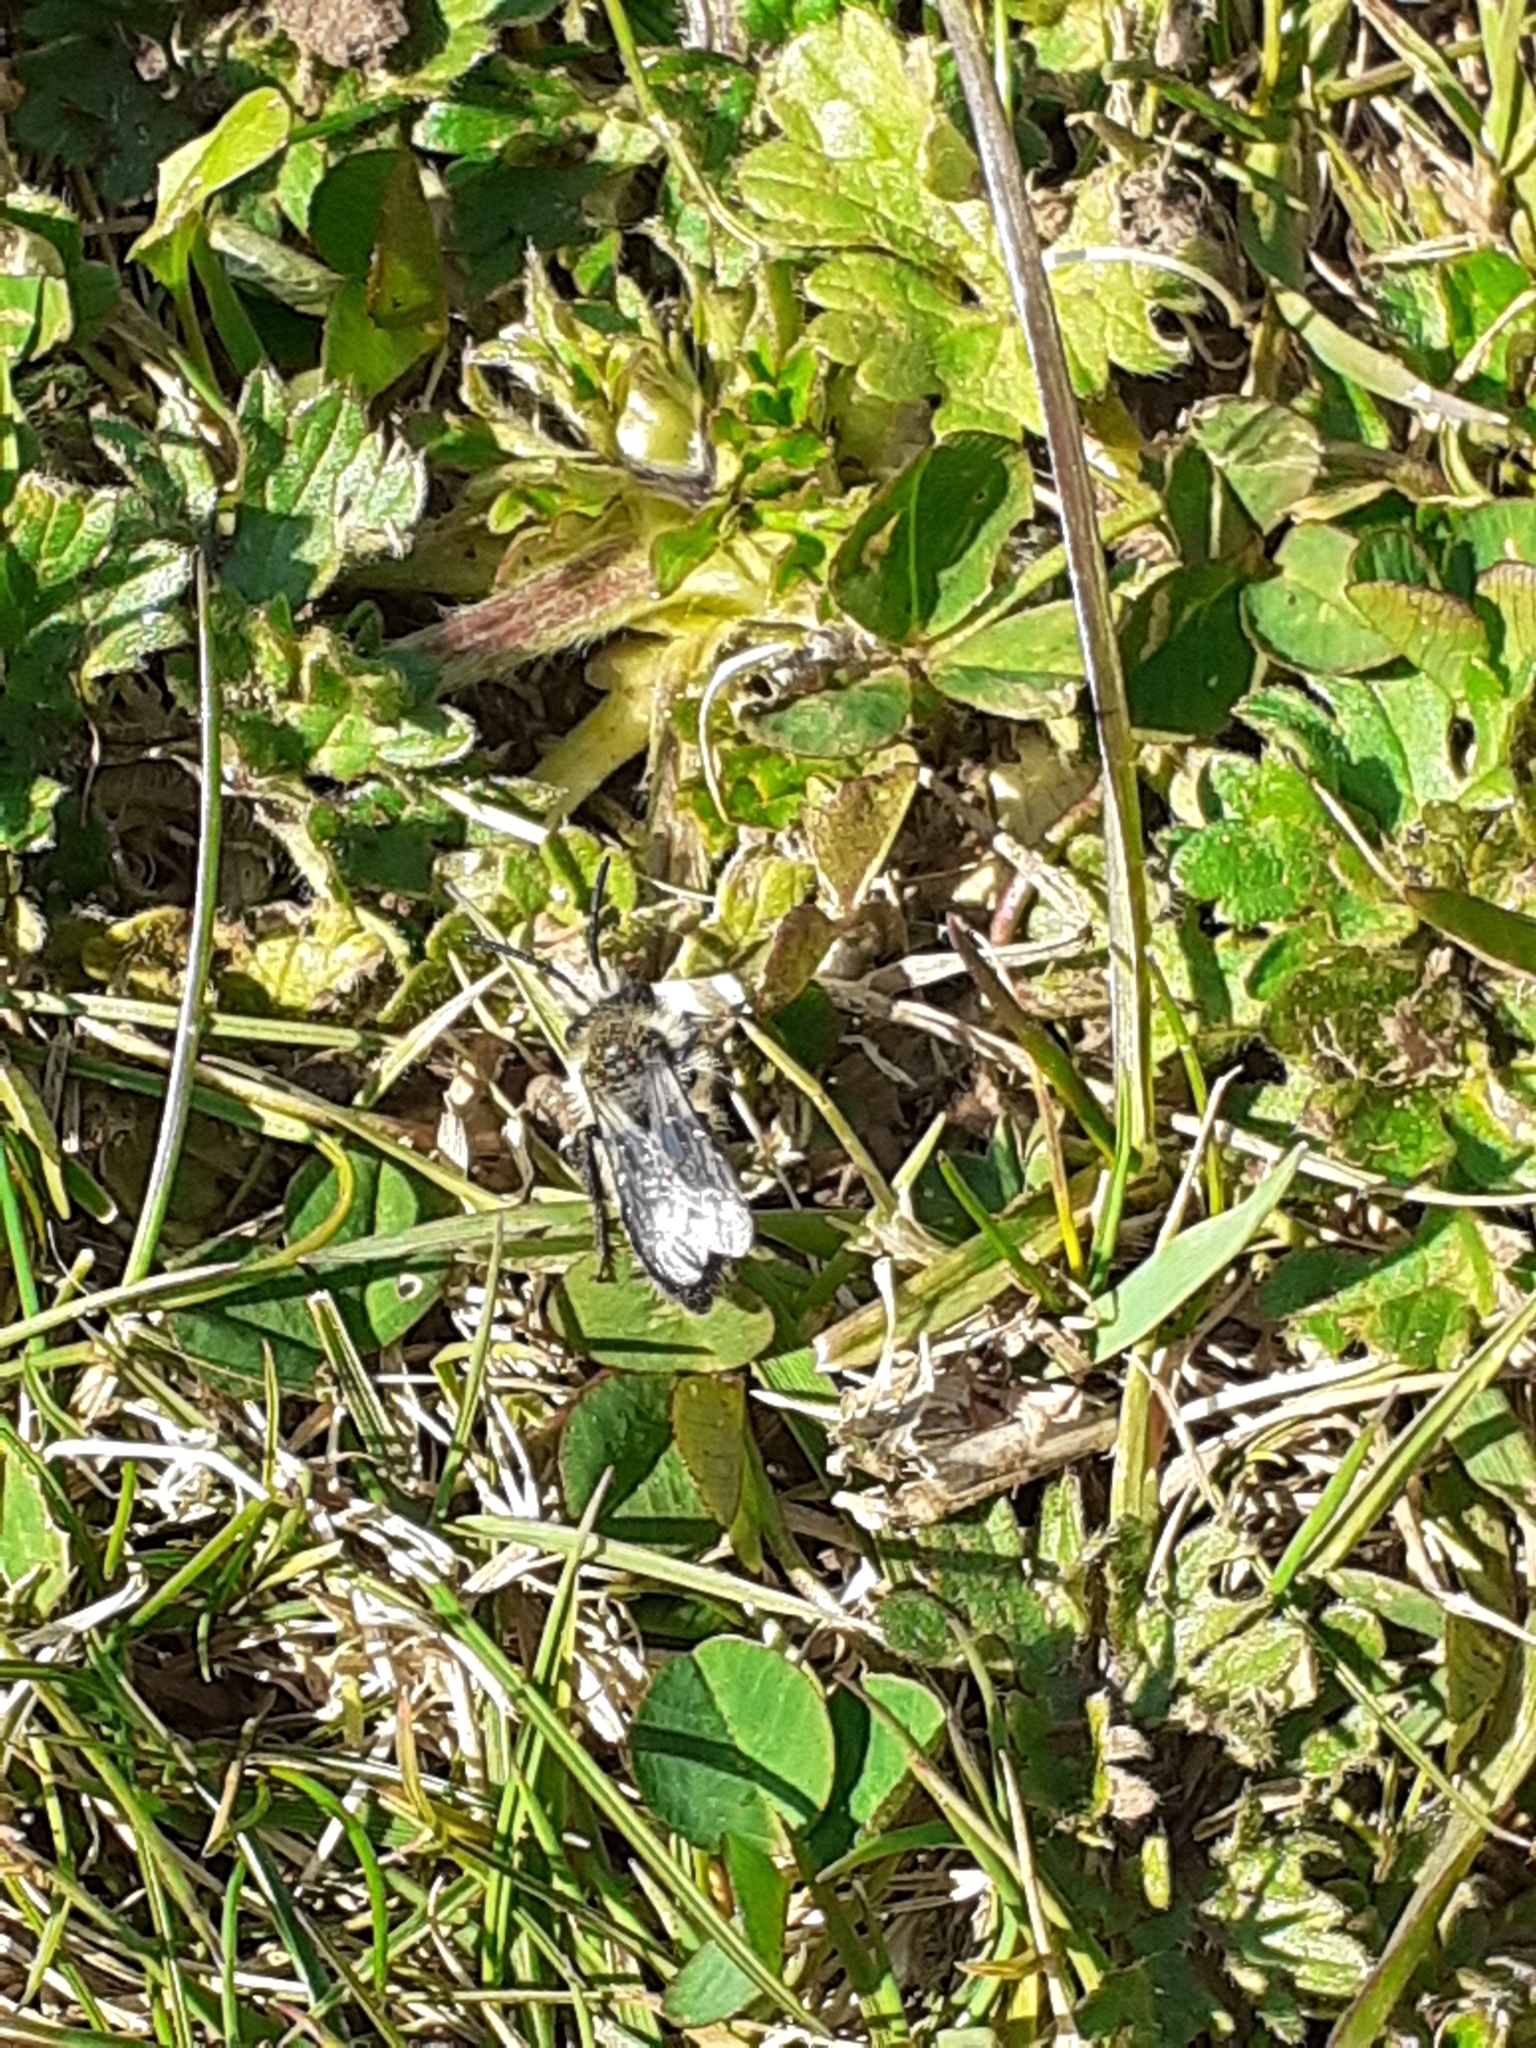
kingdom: Animalia
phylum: Arthropoda
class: Insecta
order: Hymenoptera
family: Andrenidae
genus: Andrena
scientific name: Andrena cineraria
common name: Ashy mining bee
